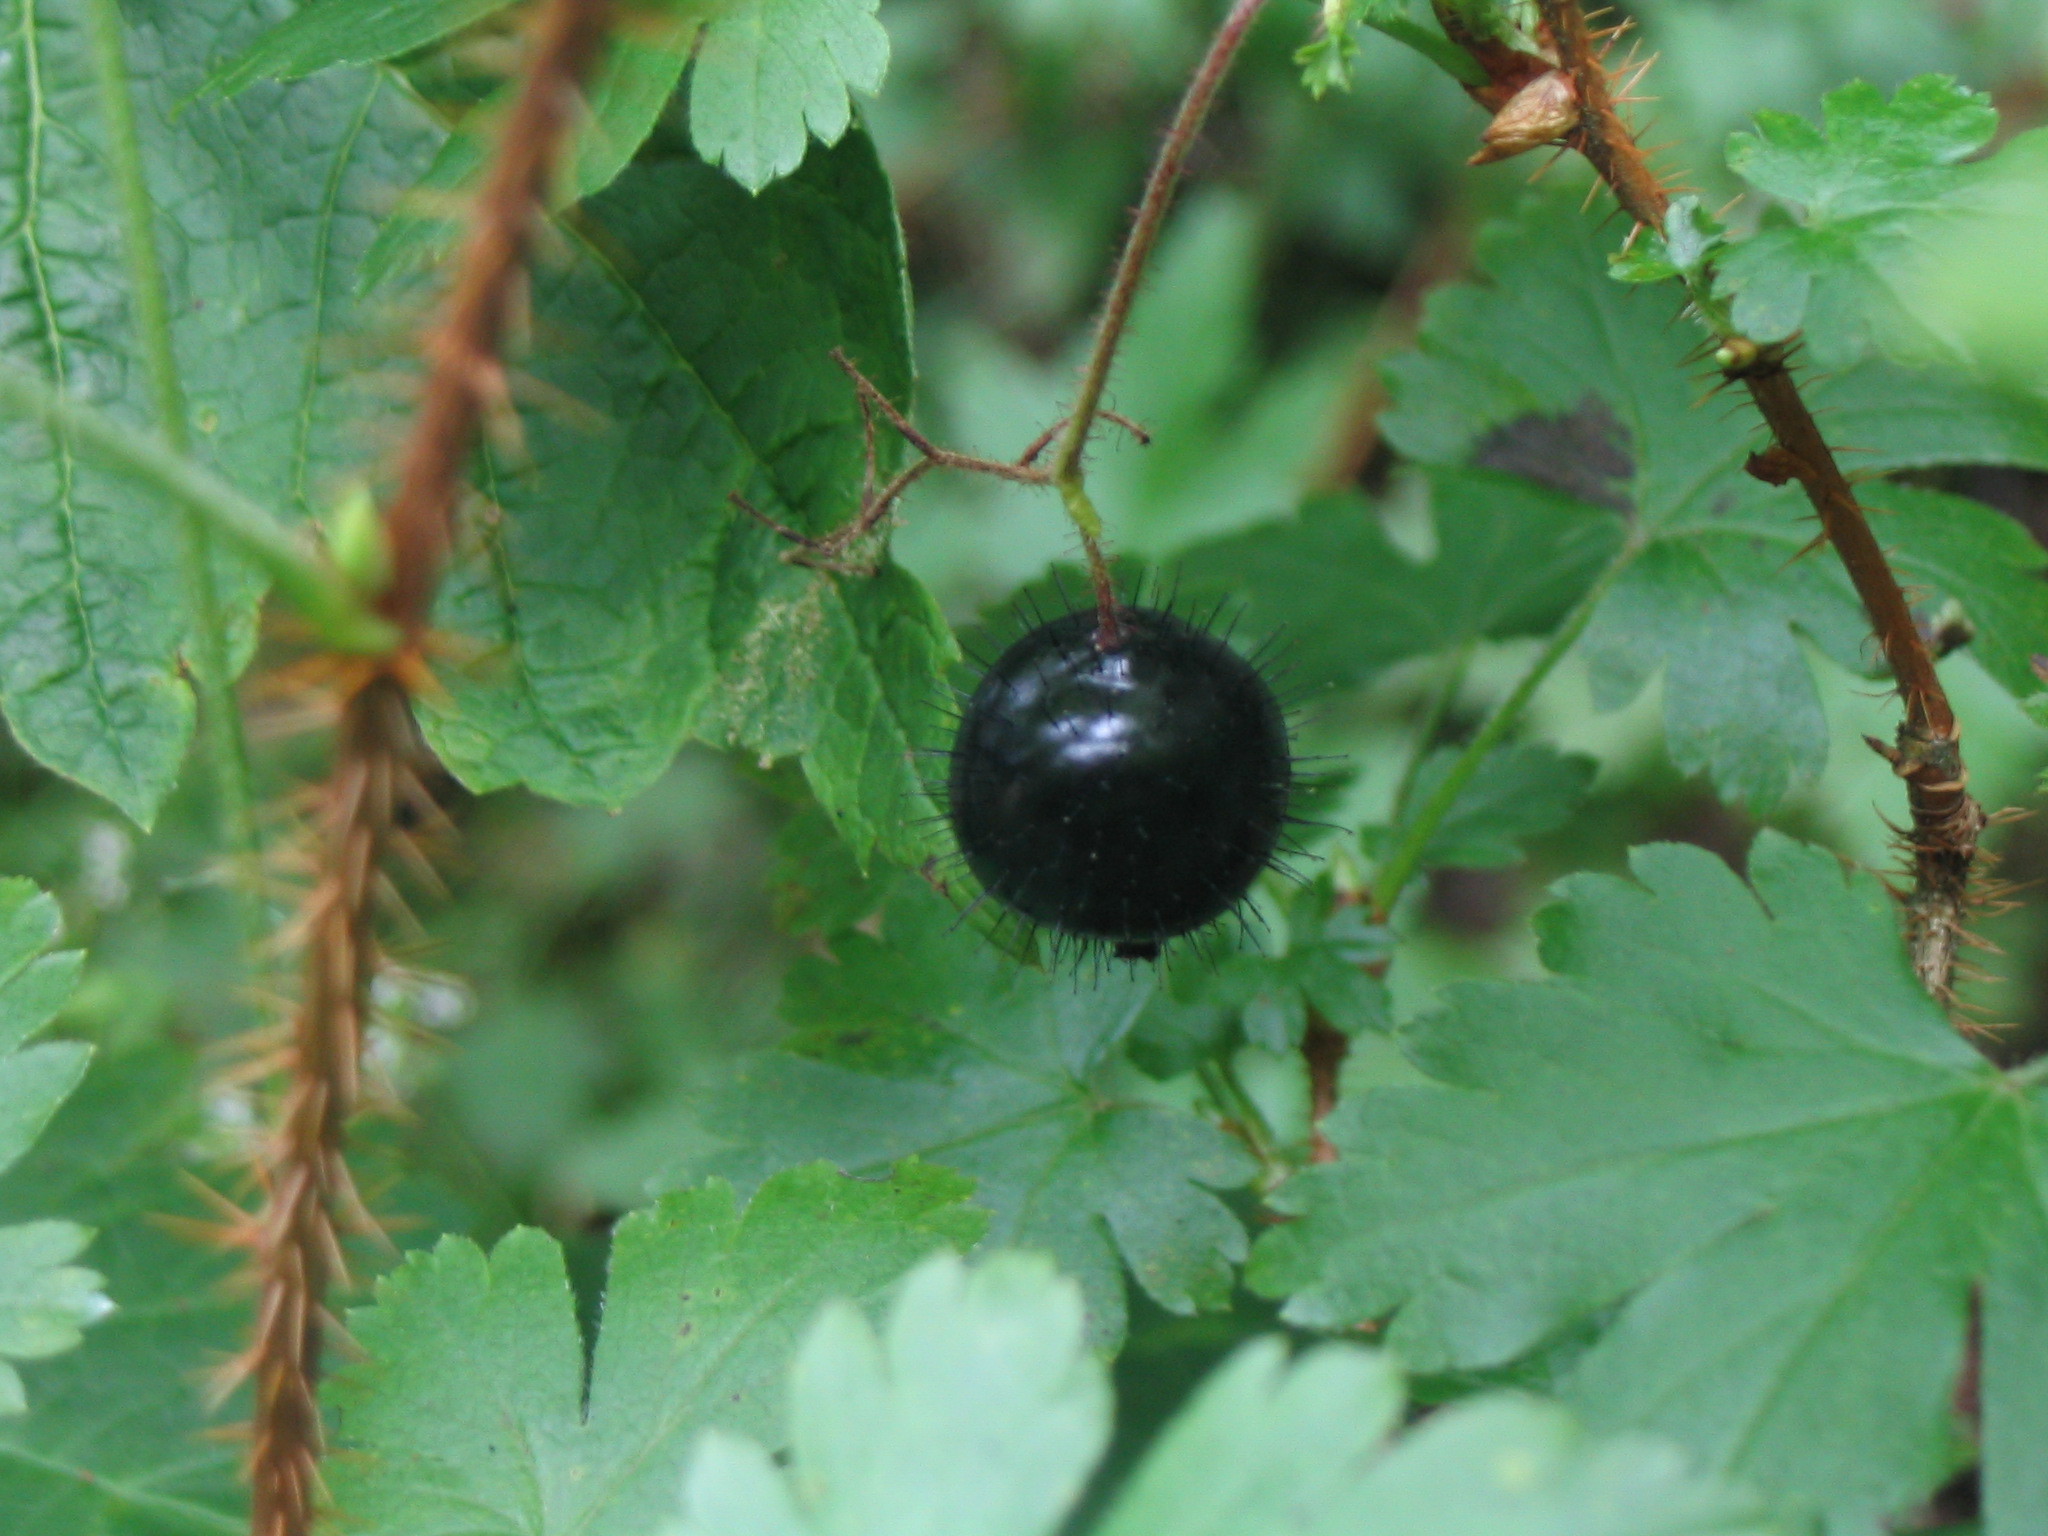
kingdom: Plantae
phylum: Tracheophyta
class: Magnoliopsida
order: Saxifragales
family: Grossulariaceae
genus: Ribes
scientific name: Ribes lacustre
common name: Black gooseberry
